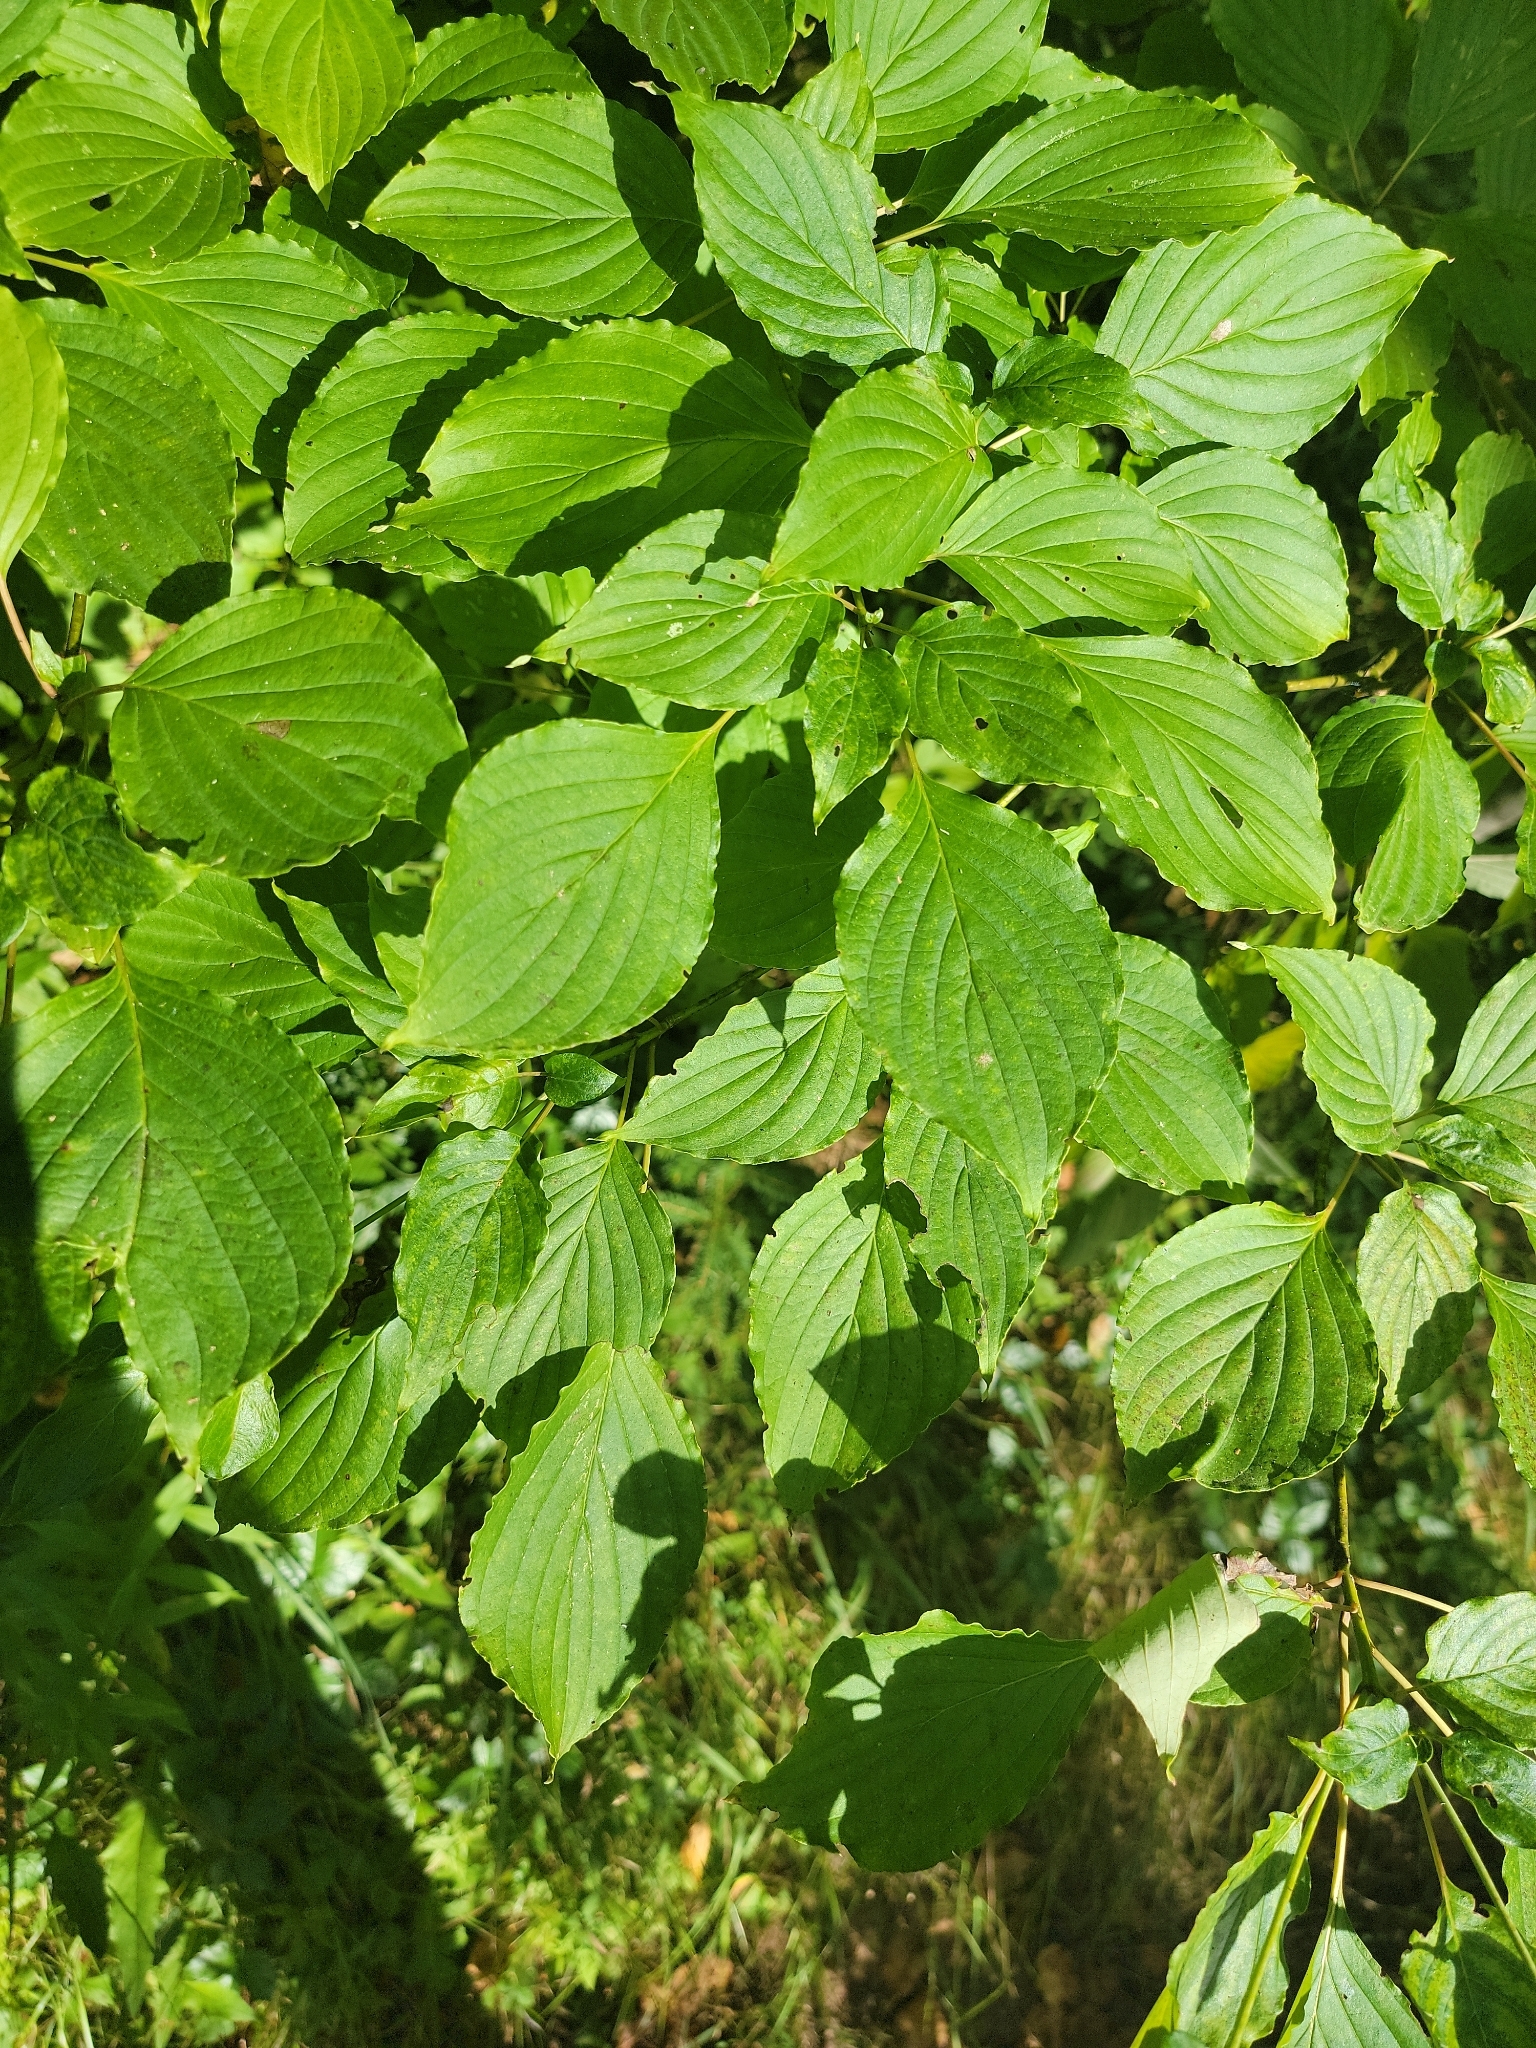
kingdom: Plantae
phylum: Tracheophyta
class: Magnoliopsida
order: Cornales
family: Cornaceae
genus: Cornus
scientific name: Cornus alternifolia
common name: Pagoda dogwood
